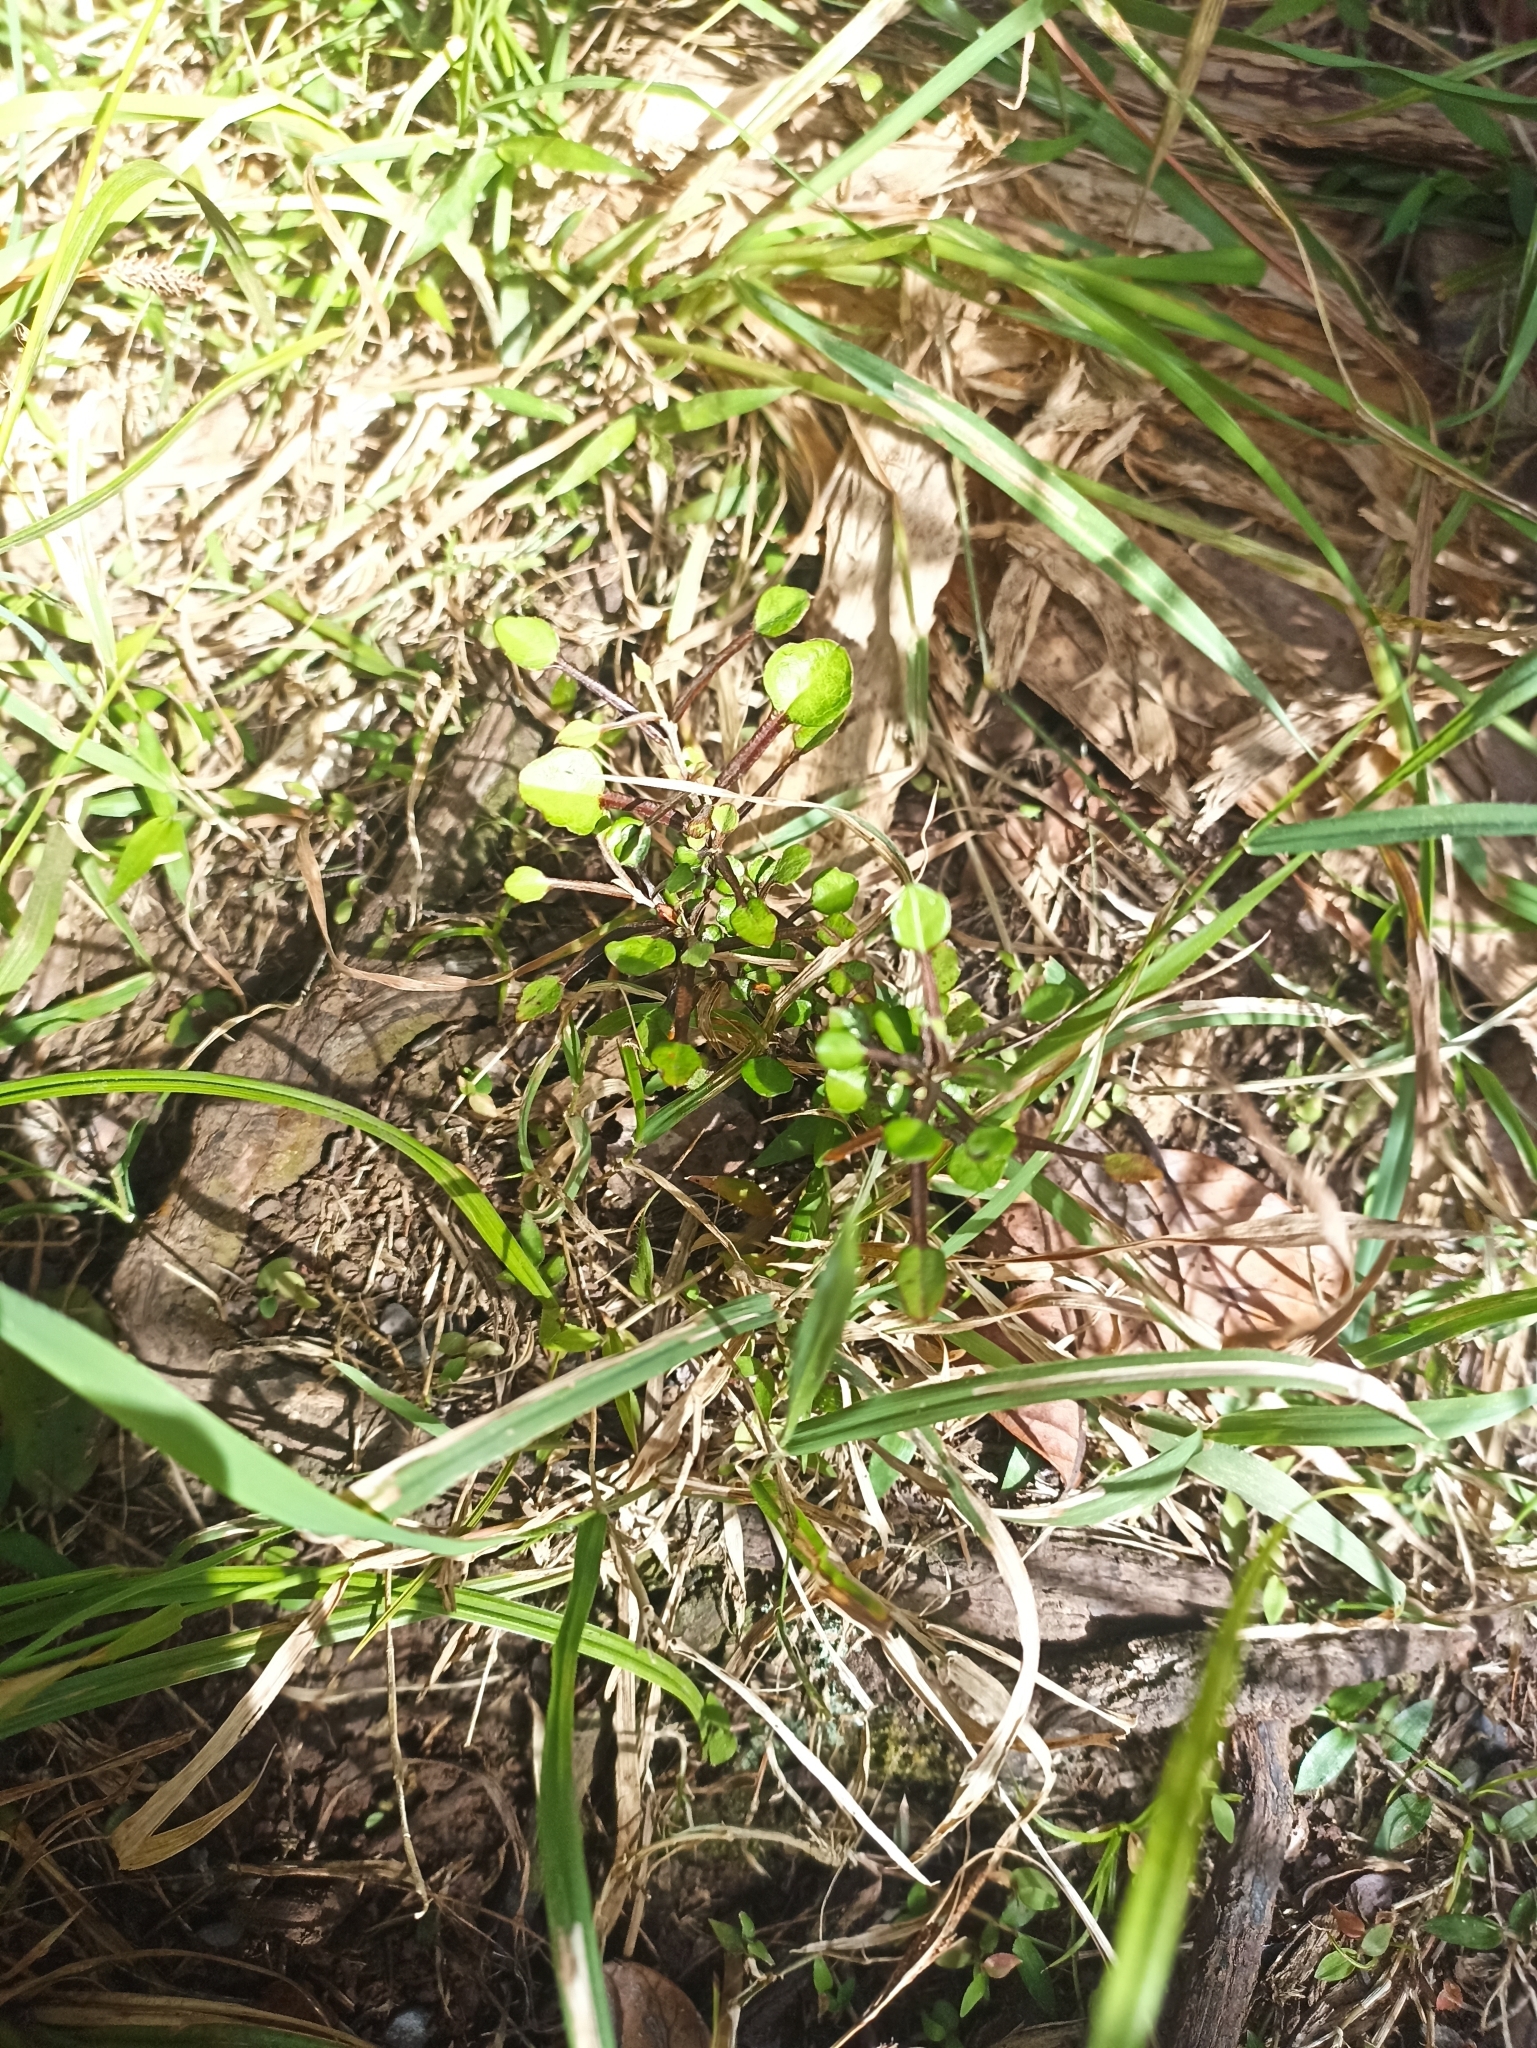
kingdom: Plantae
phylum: Tracheophyta
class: Magnoliopsida
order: Asterales
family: Argophyllaceae
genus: Corokia
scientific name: Corokia cotoneaster
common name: Wire nettingbush
